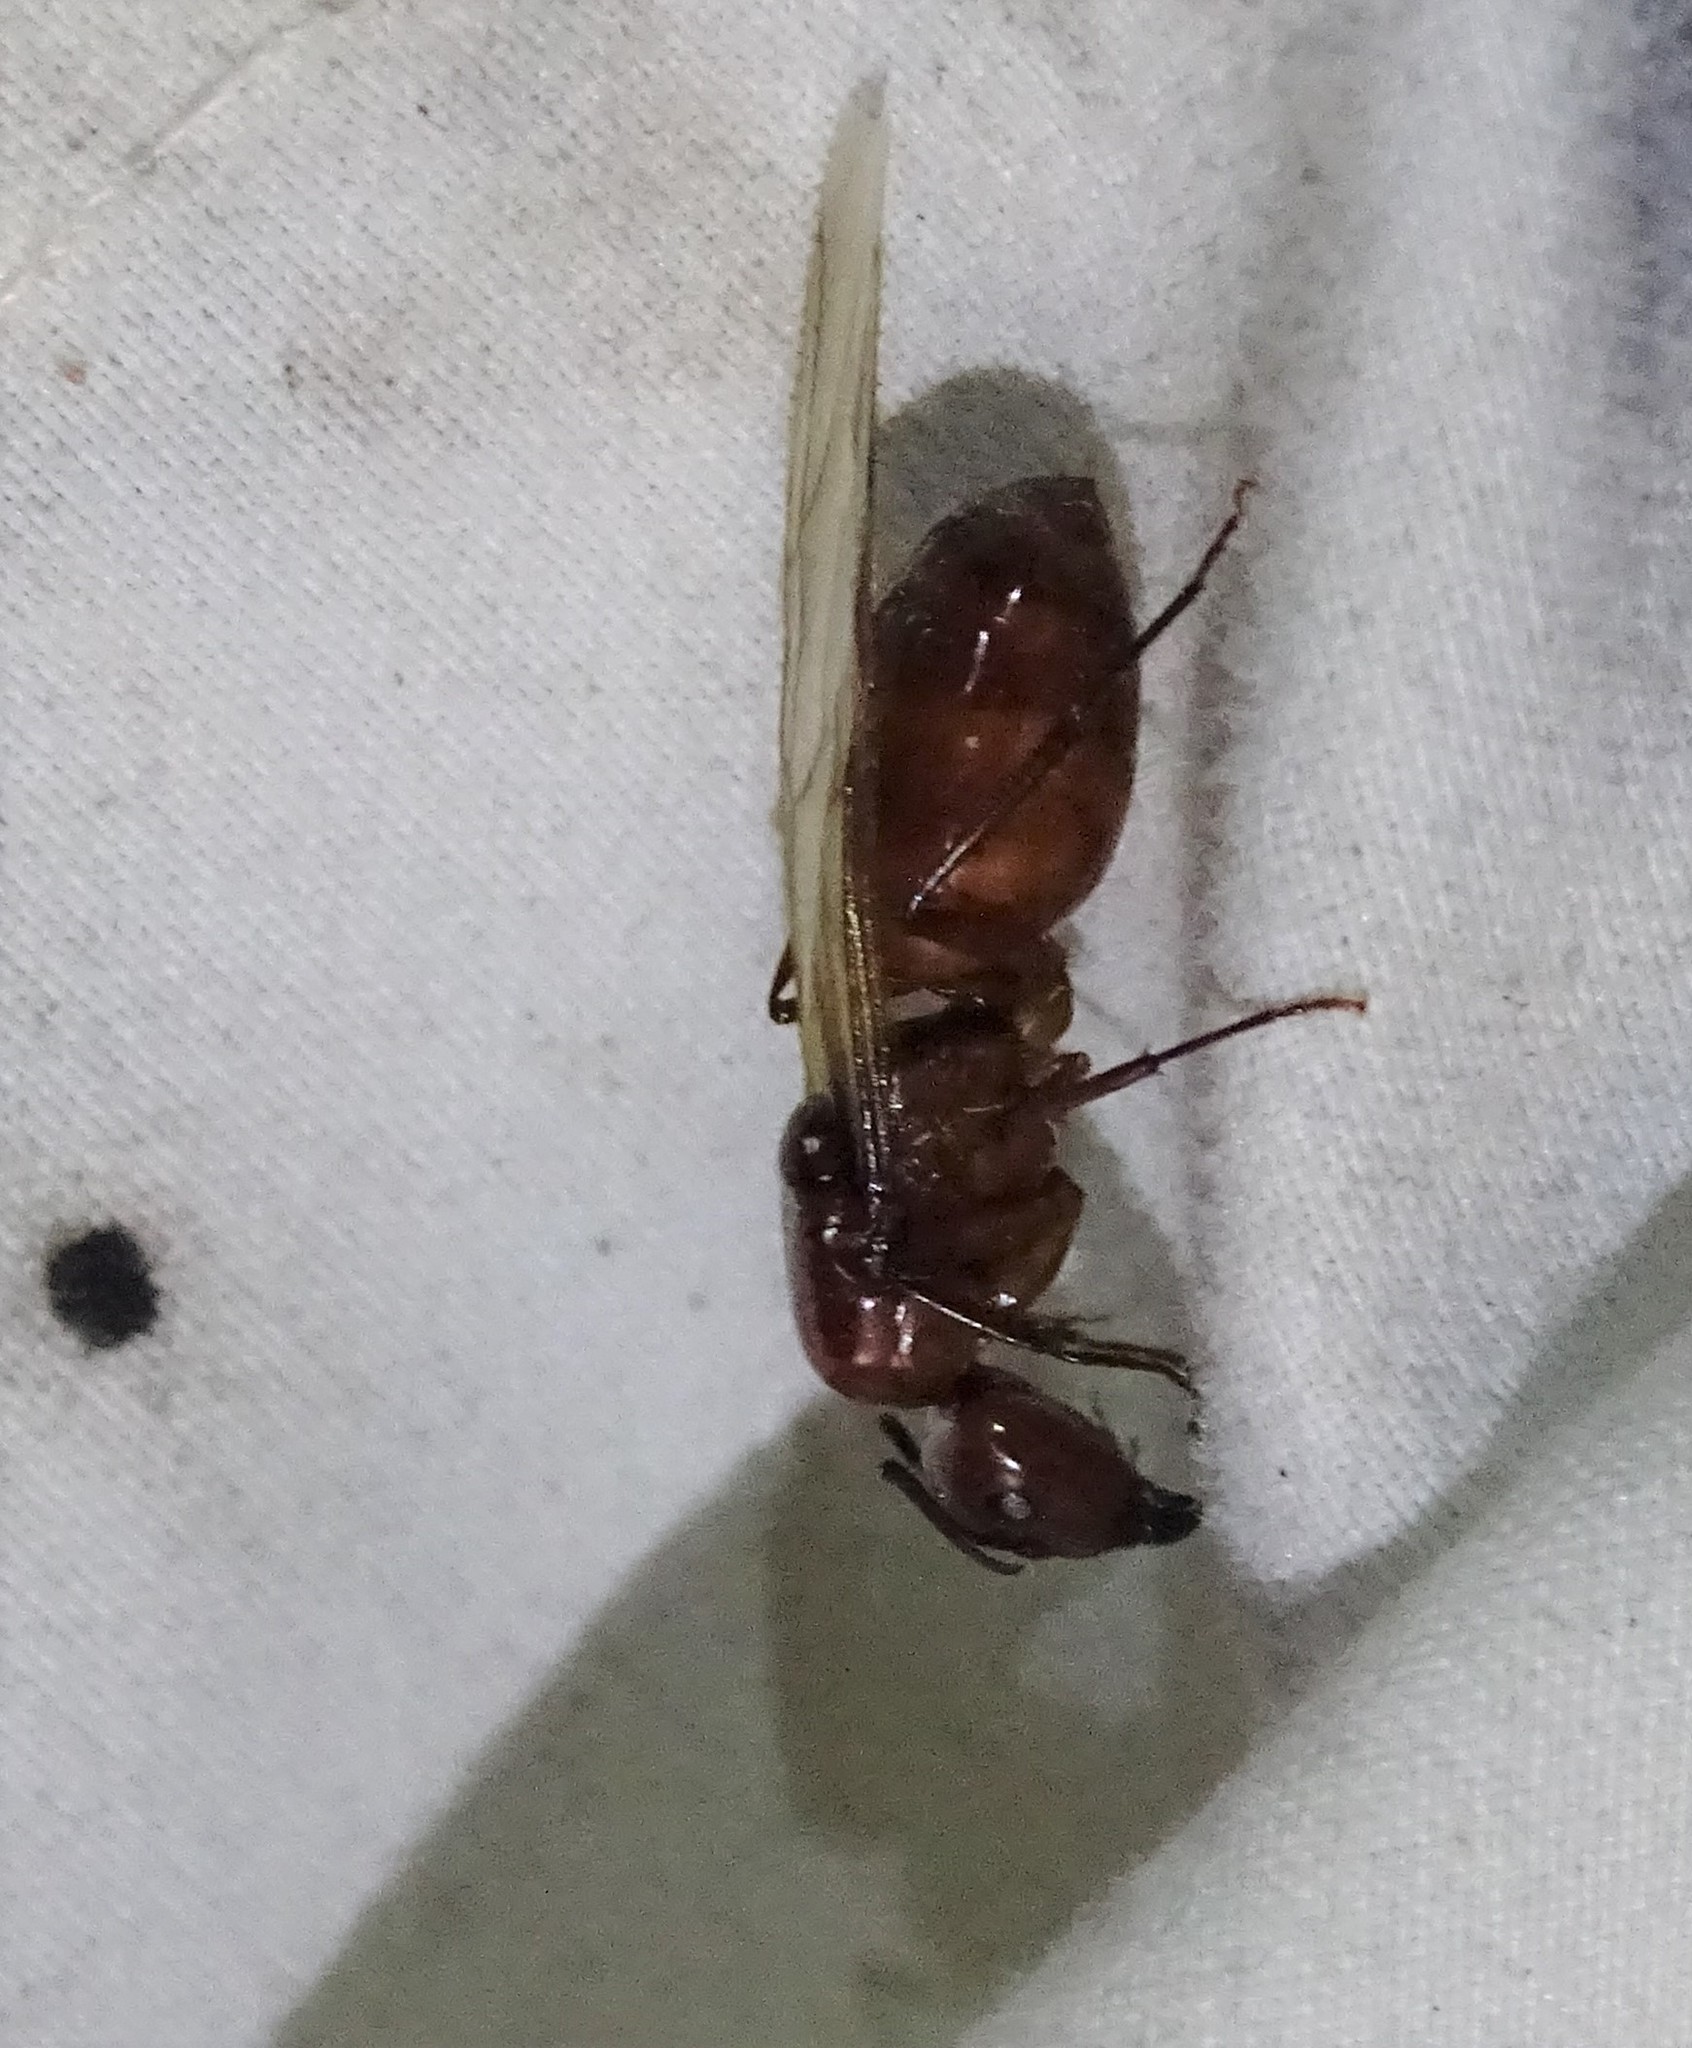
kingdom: Animalia
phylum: Arthropoda
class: Insecta
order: Hymenoptera
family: Formicidae
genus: Camponotus
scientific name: Camponotus castaneus
